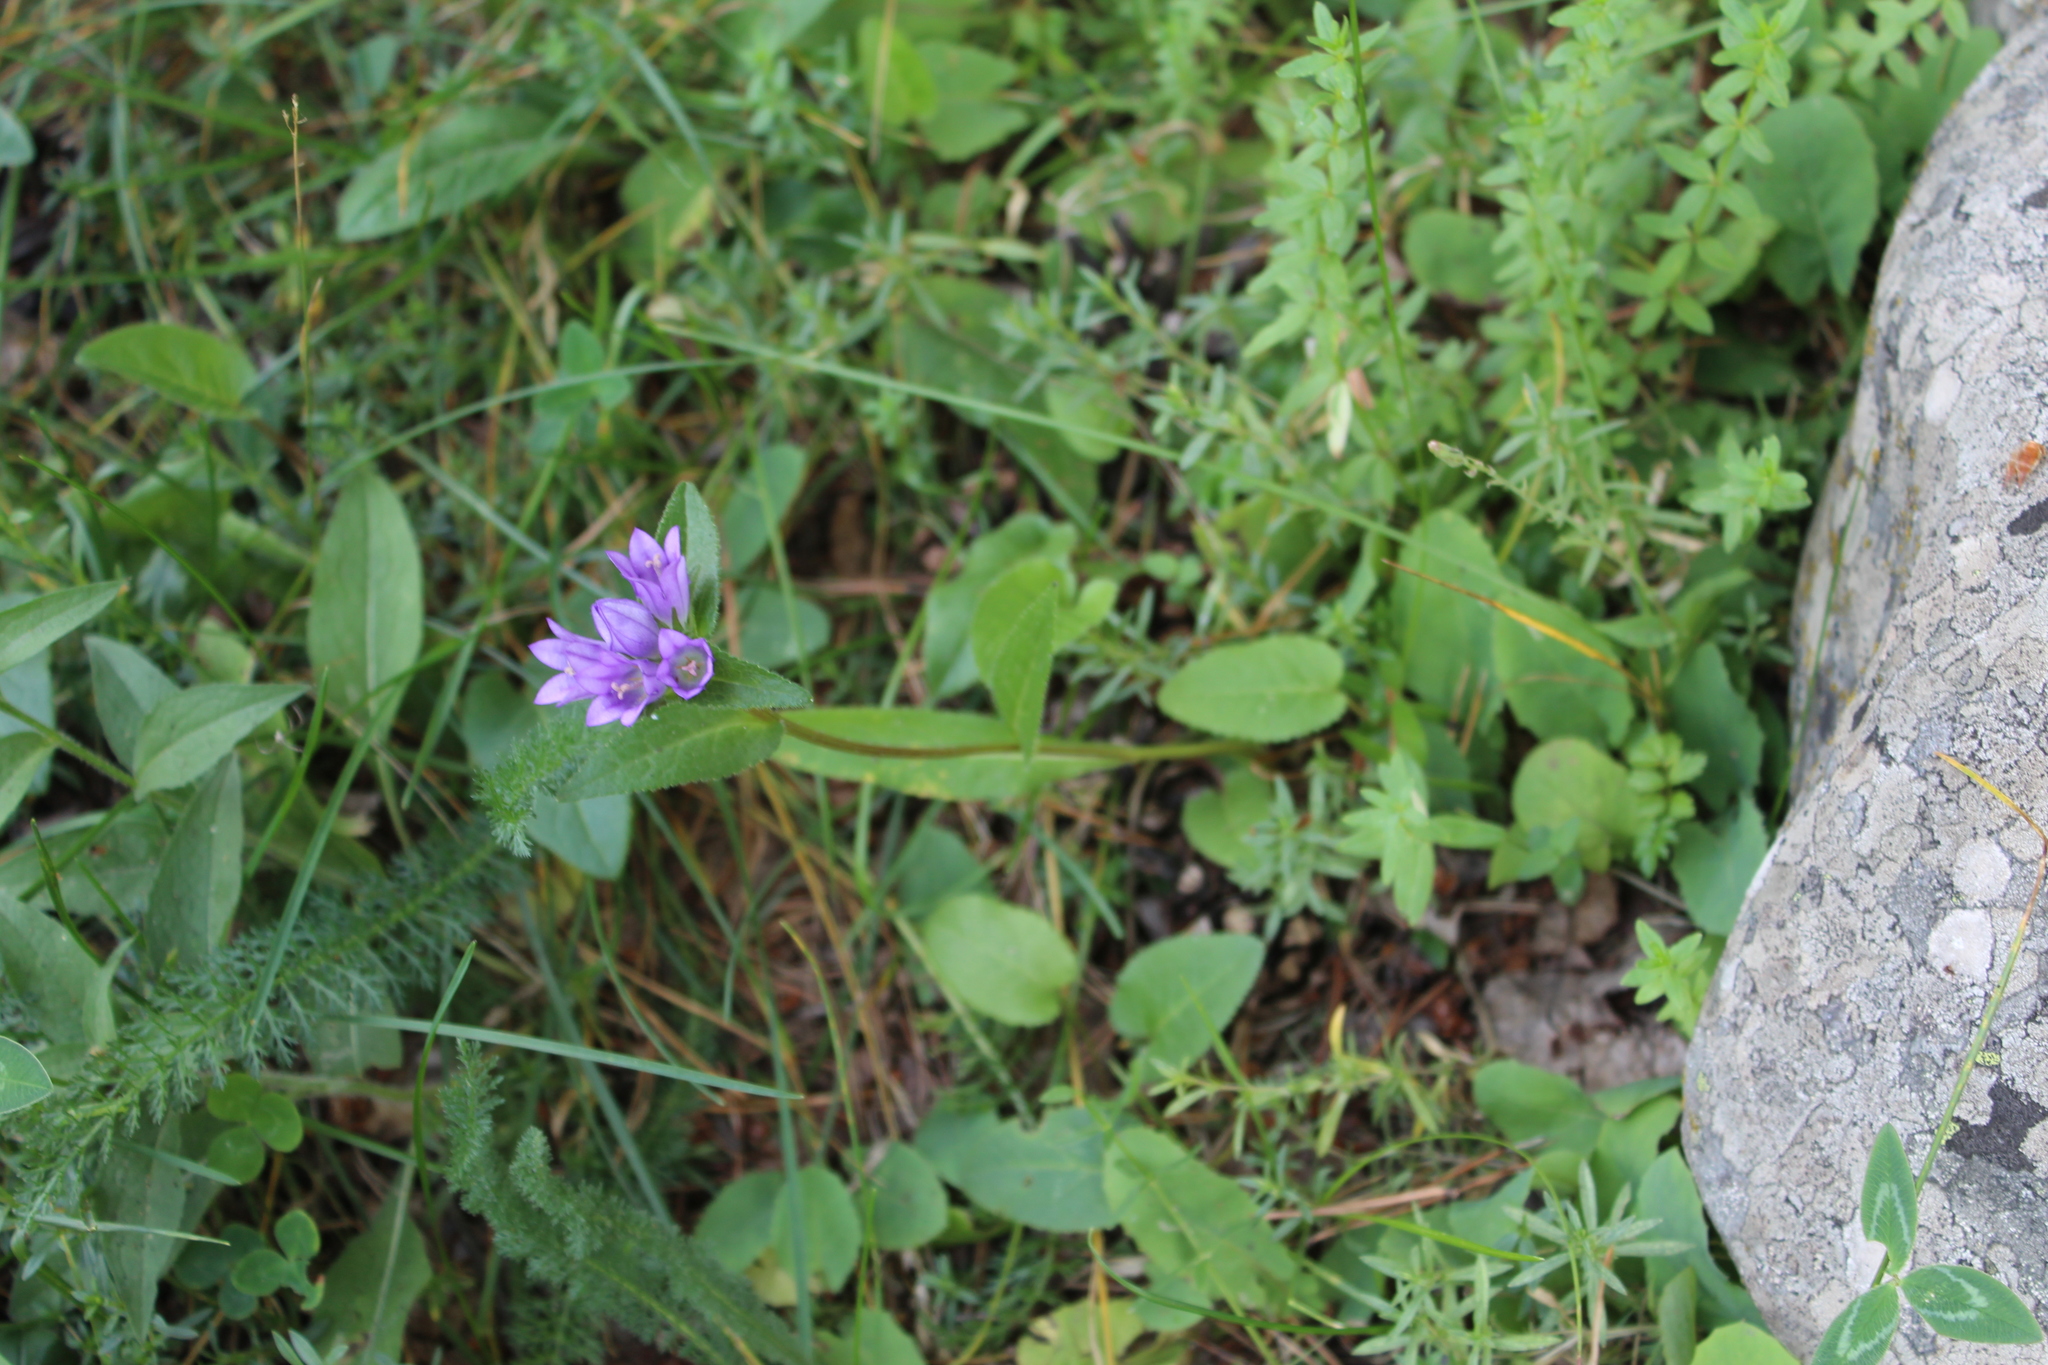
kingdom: Plantae
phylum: Tracheophyta
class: Magnoliopsida
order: Asterales
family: Campanulaceae
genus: Campanula
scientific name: Campanula glomerata
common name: Clustered bellflower
